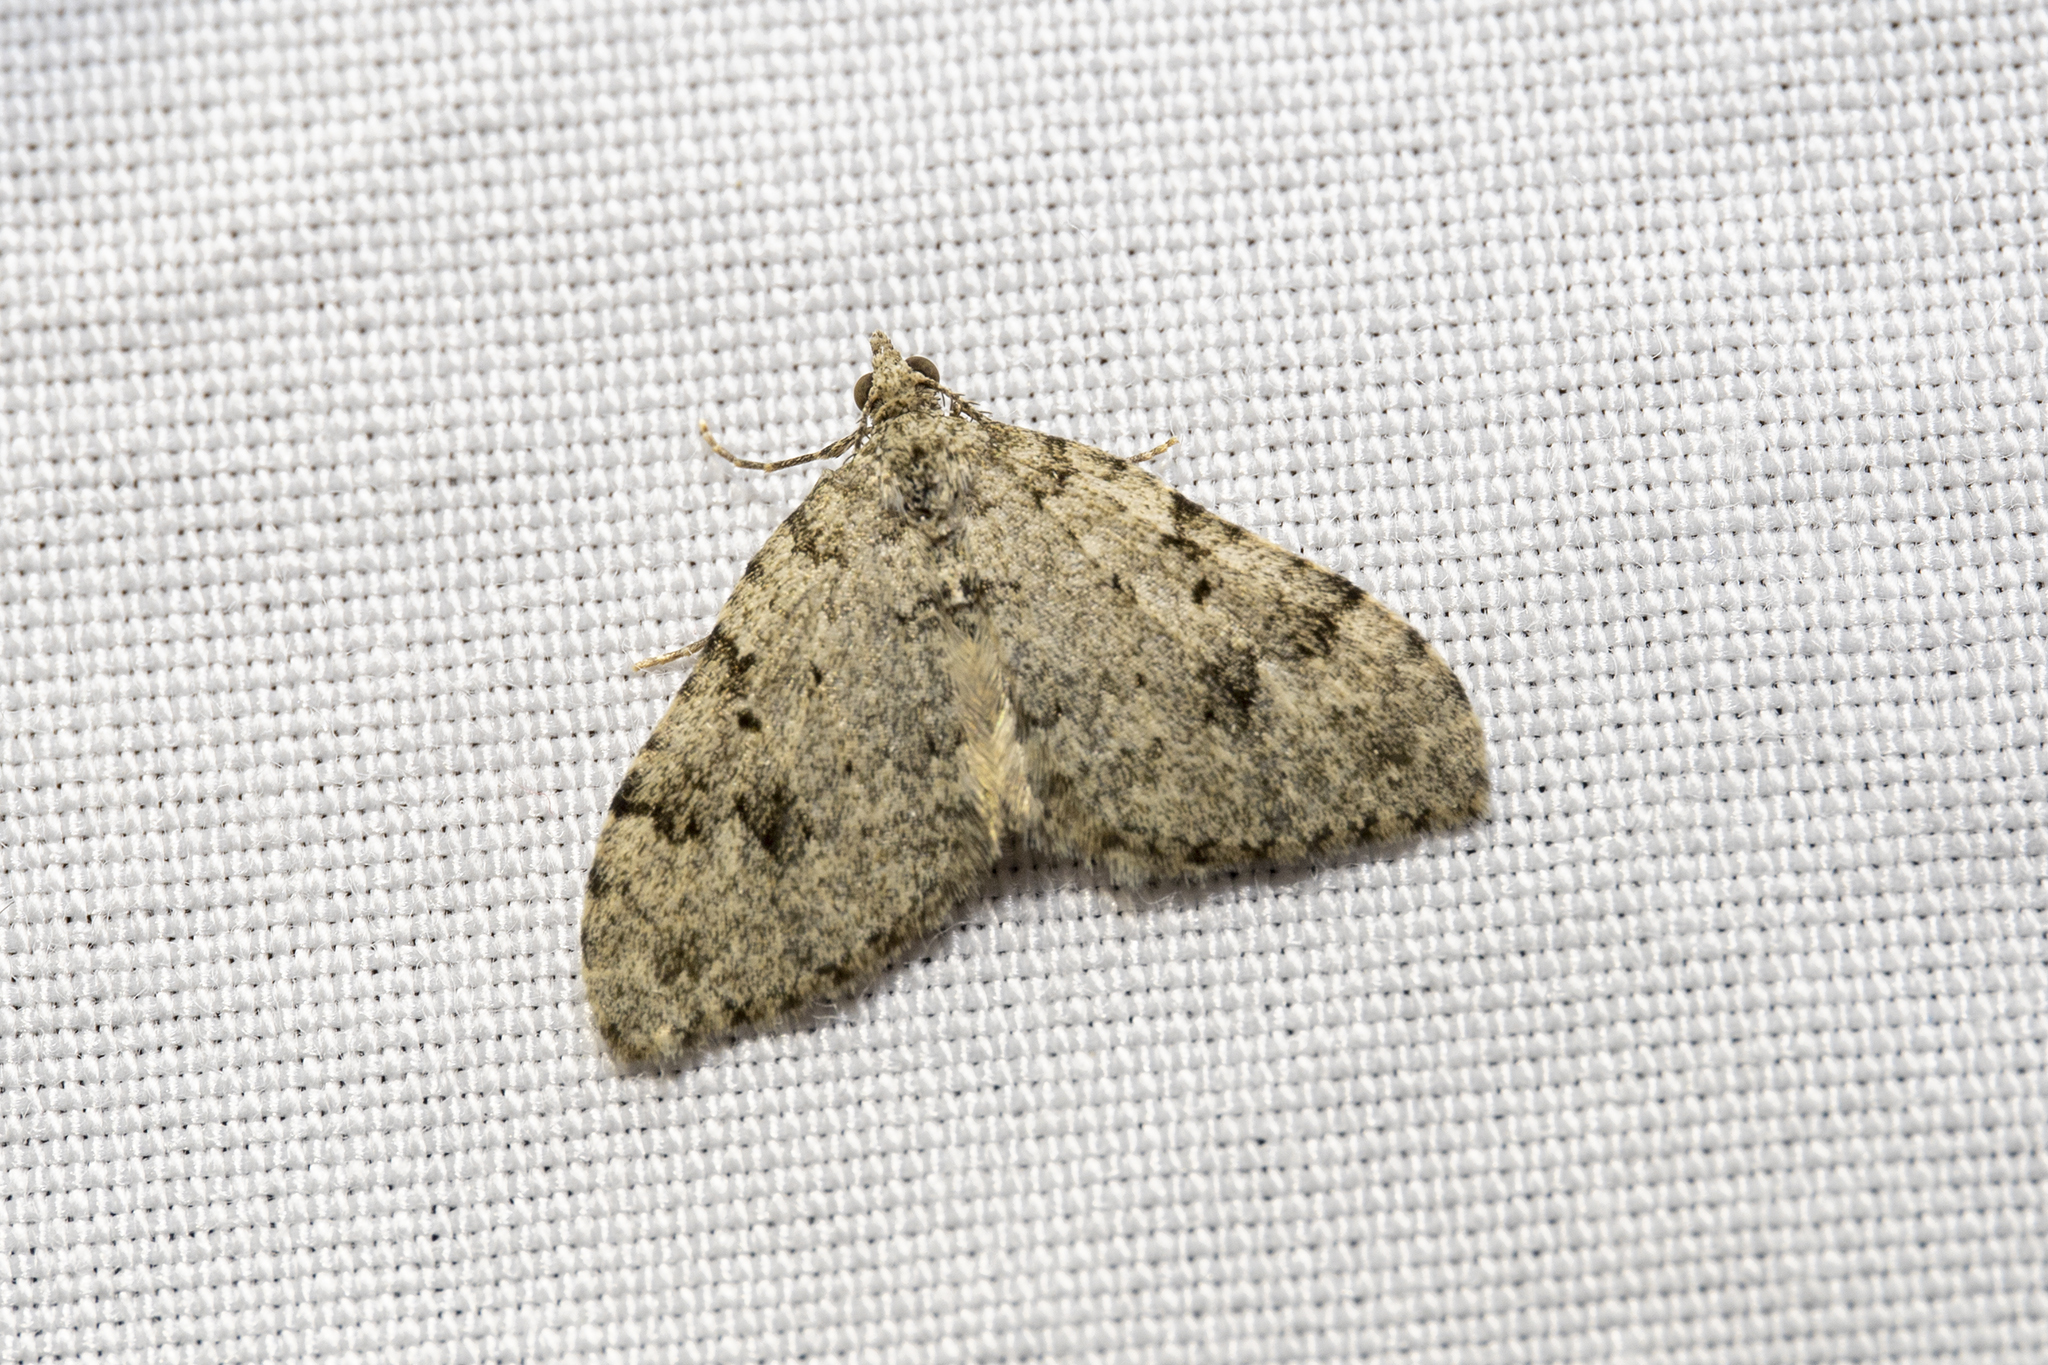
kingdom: Animalia
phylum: Arthropoda
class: Insecta
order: Lepidoptera
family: Geometridae
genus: Helastia
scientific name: Helastia cinerearia
